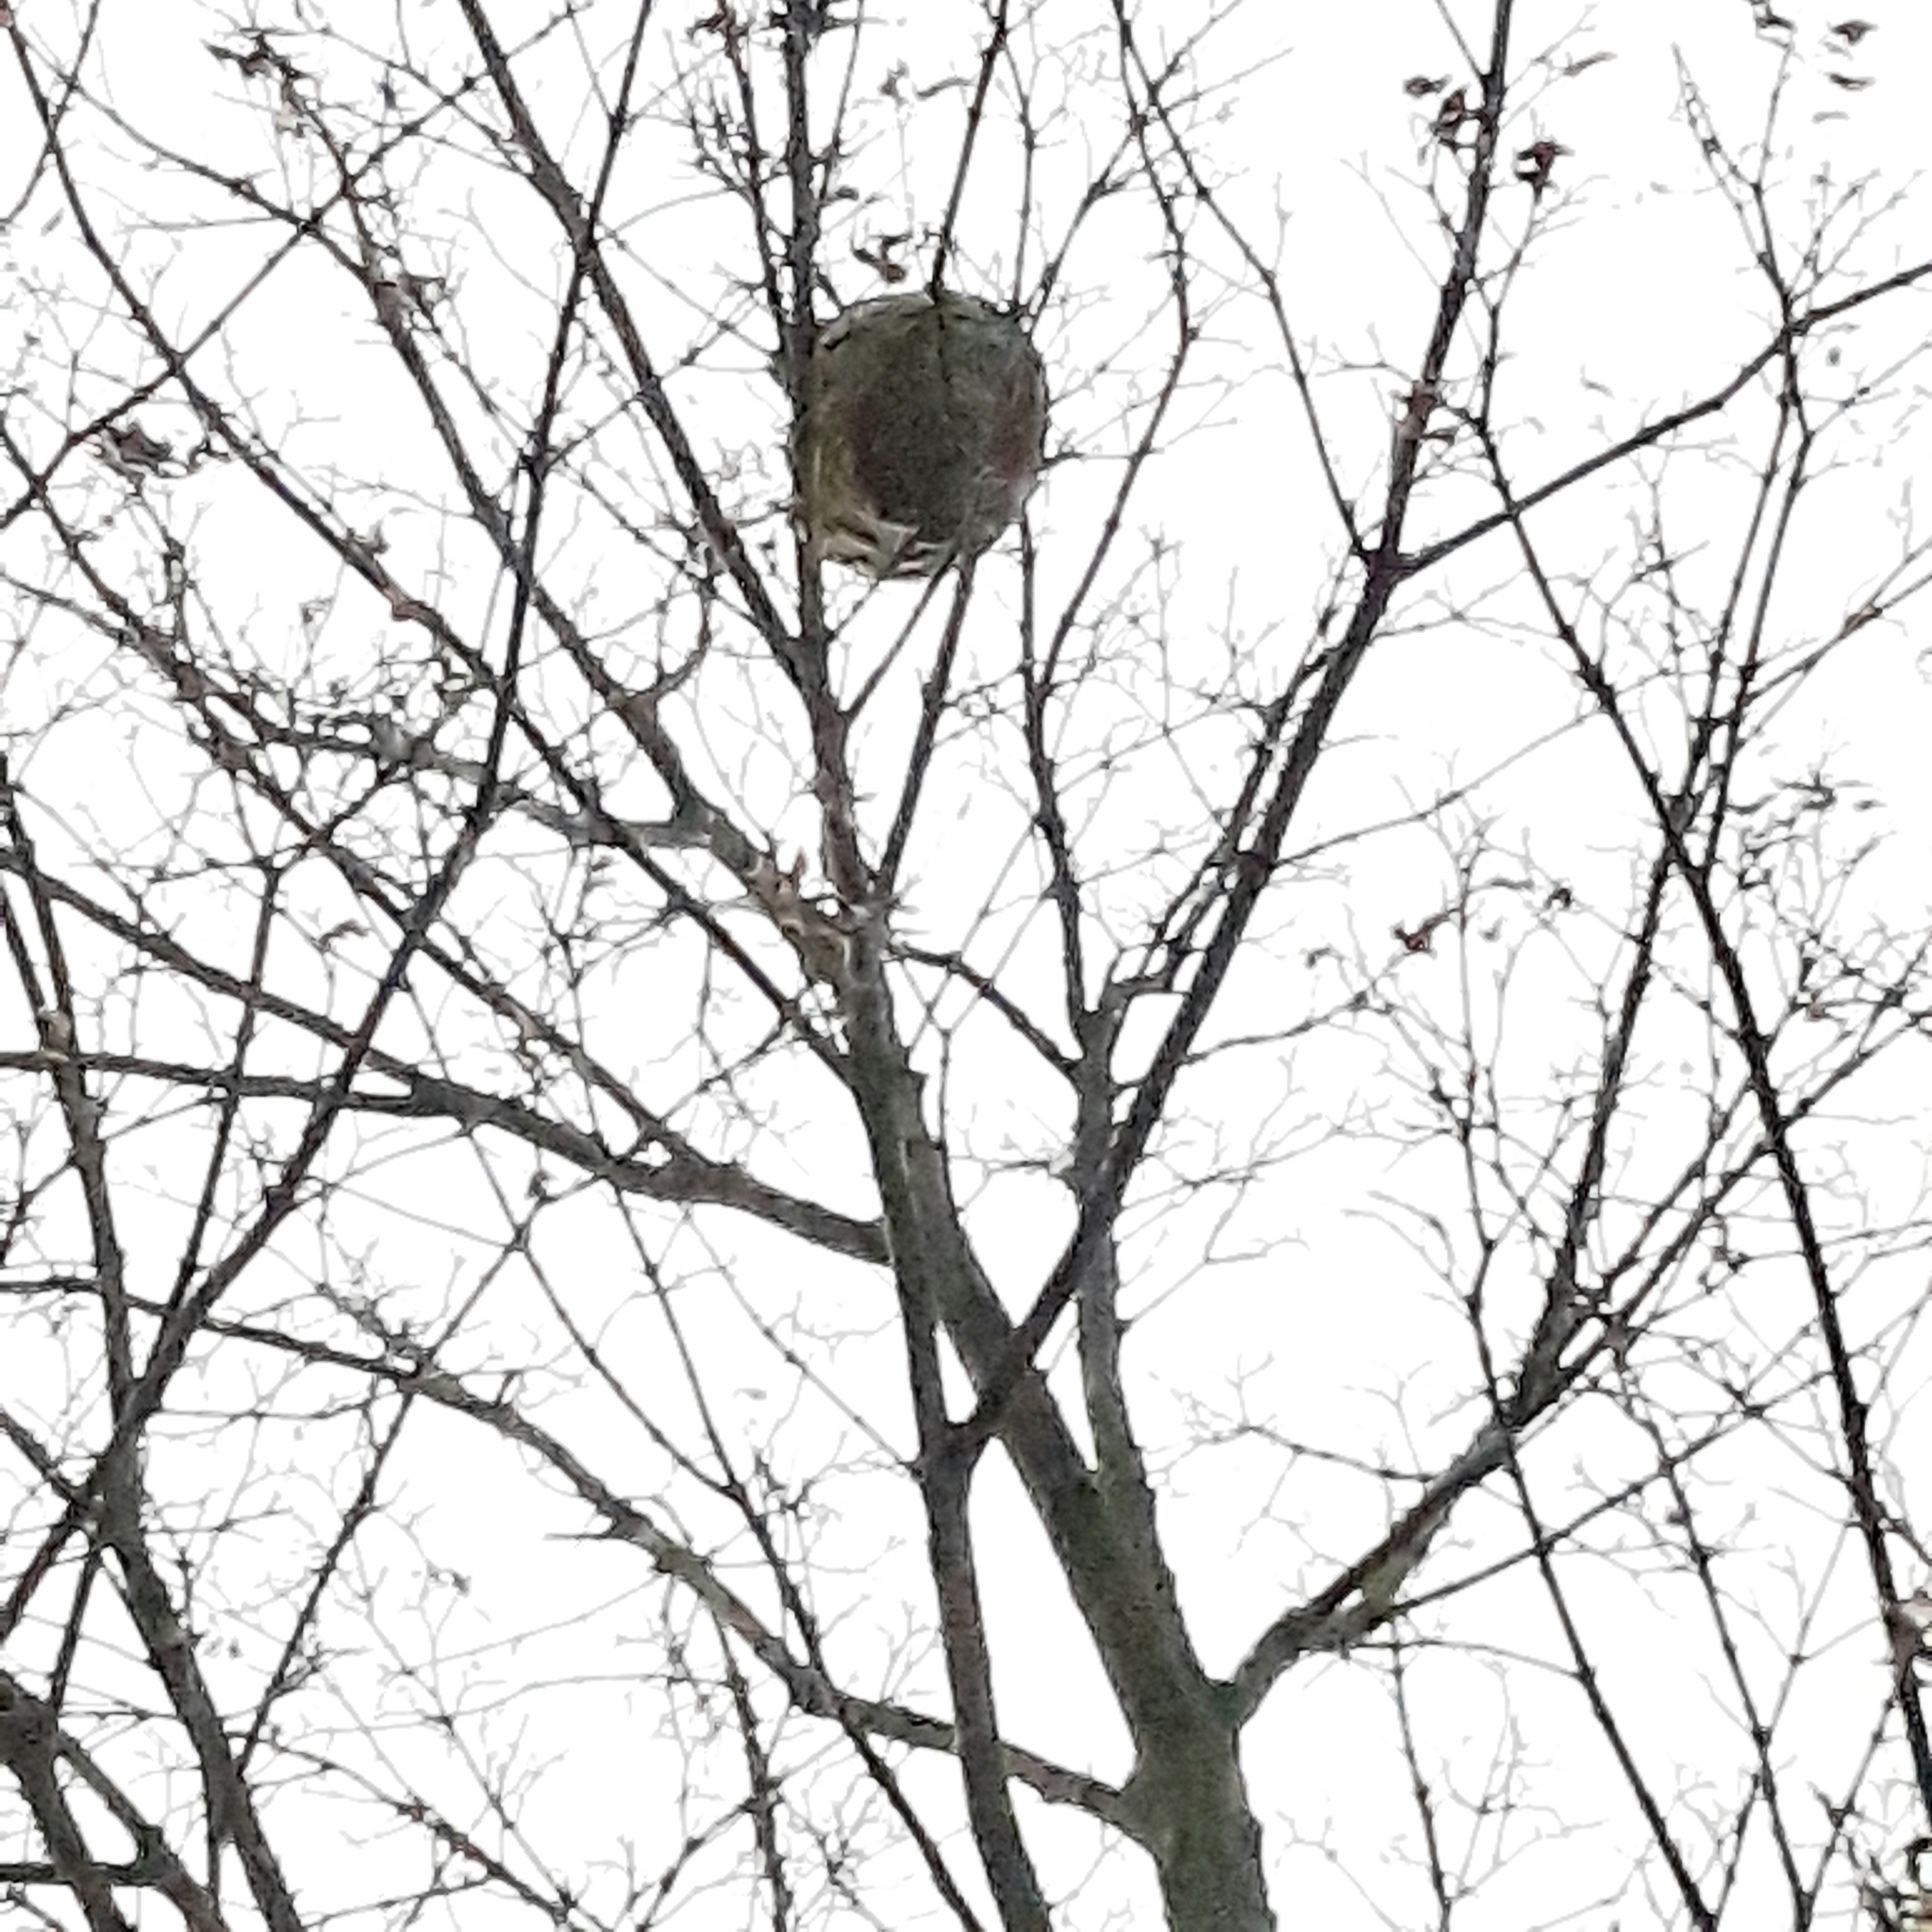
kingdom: Animalia
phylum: Arthropoda
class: Insecta
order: Hymenoptera
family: Vespidae
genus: Vespa
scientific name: Vespa velutina
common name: Asian hornet
